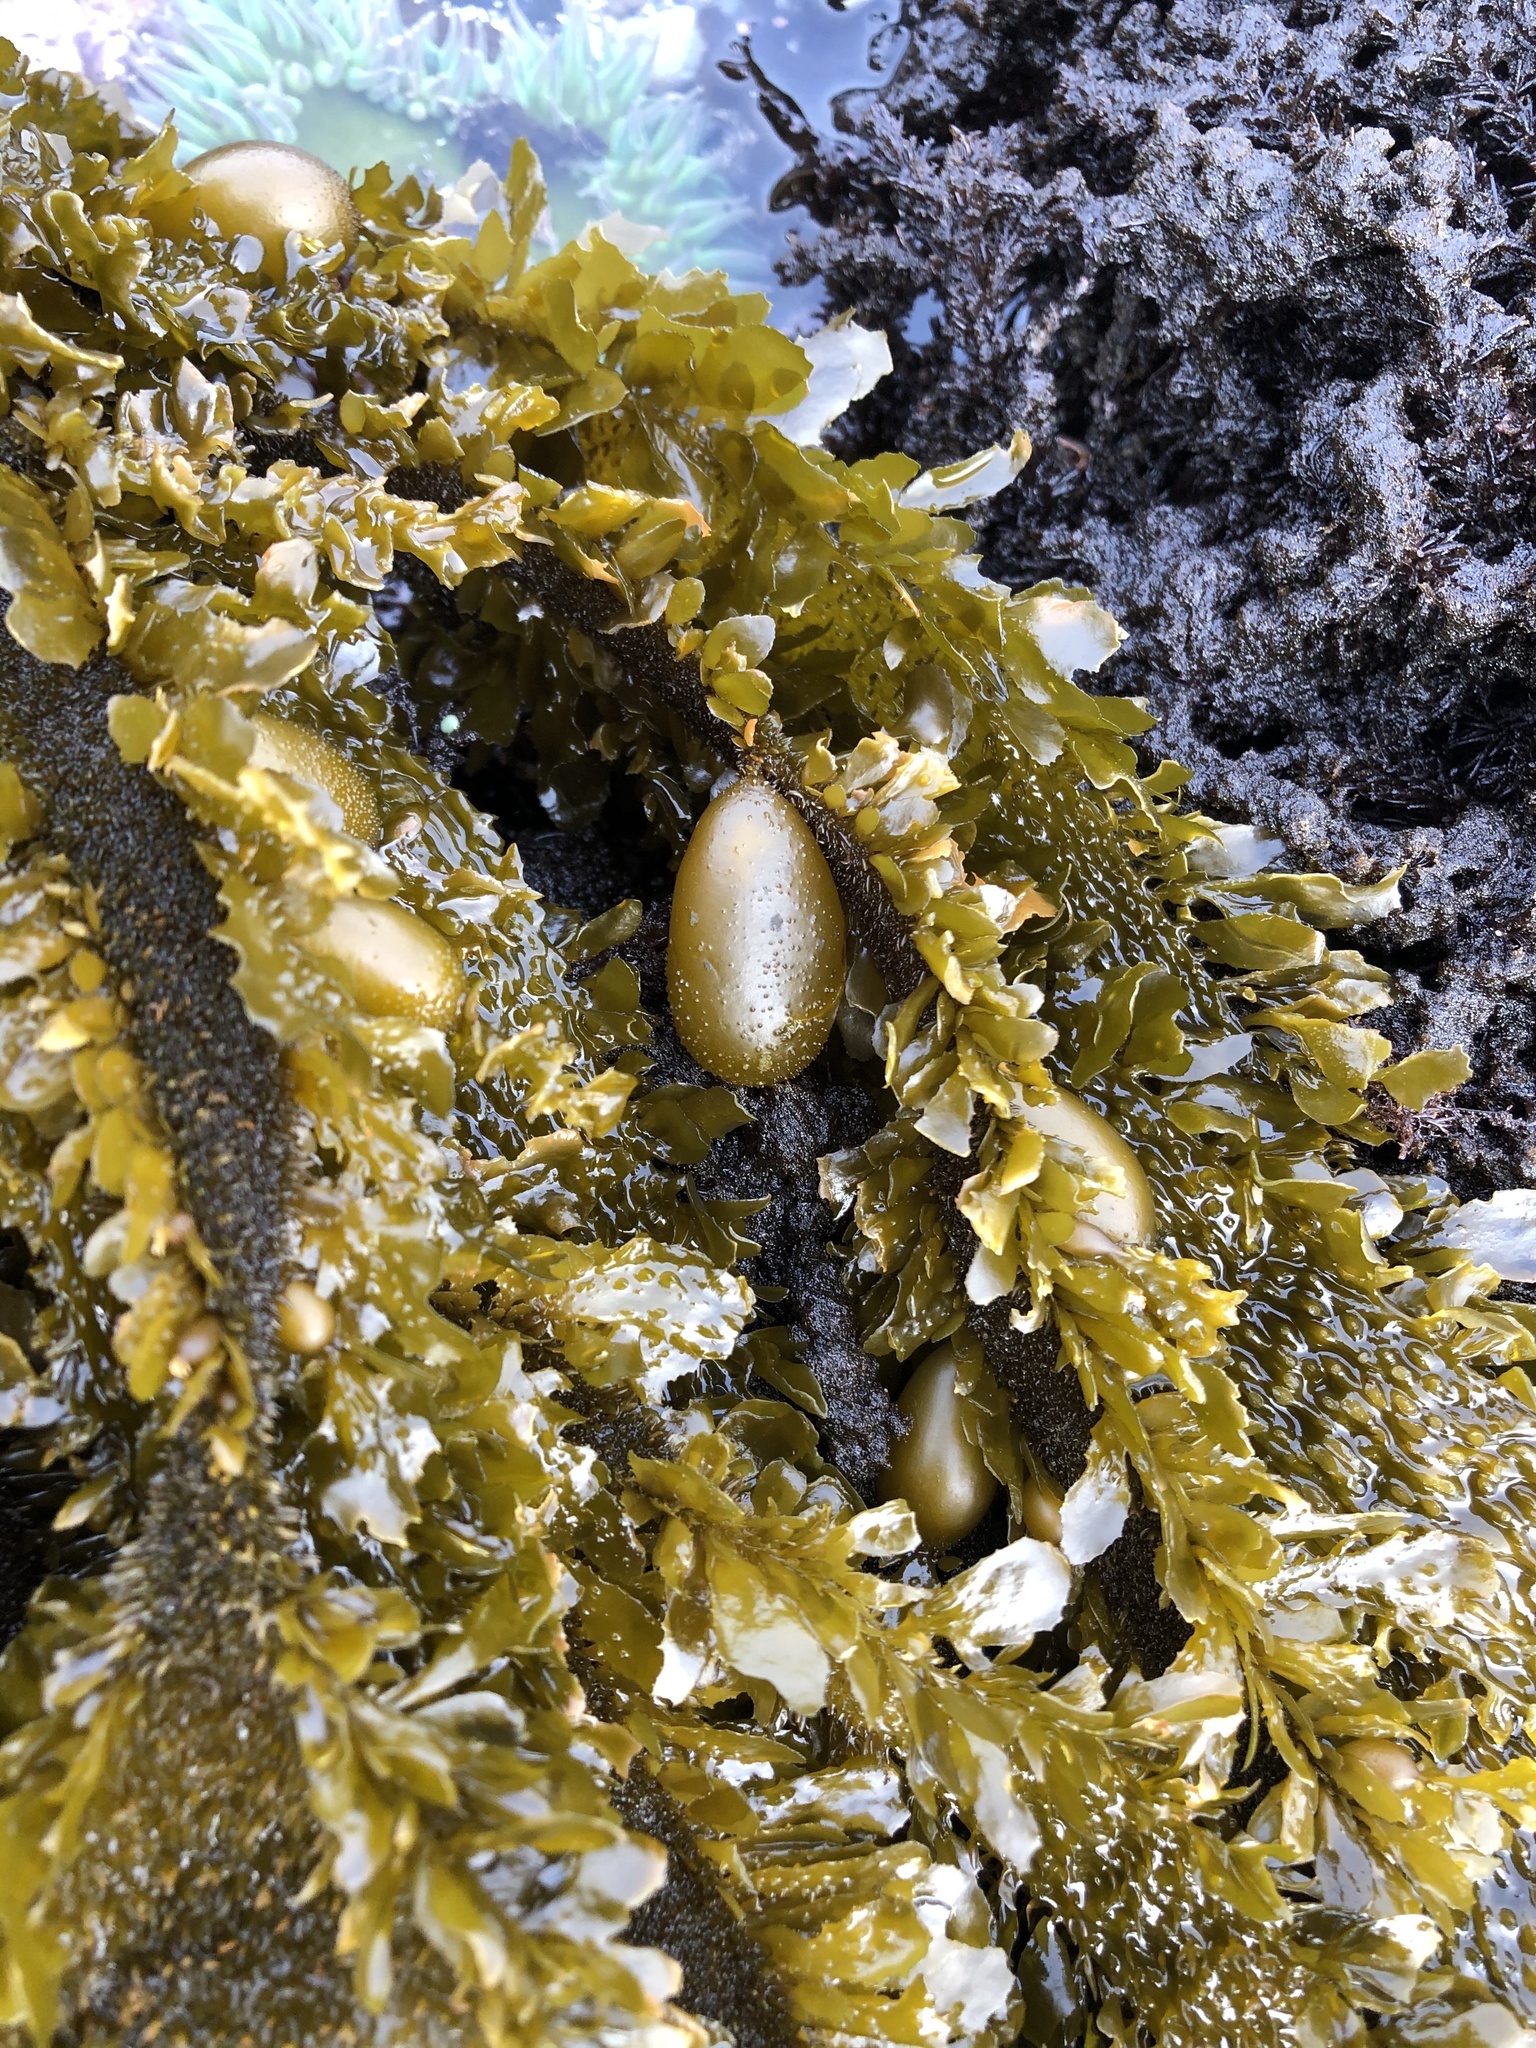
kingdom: Chromista
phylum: Ochrophyta
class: Phaeophyceae
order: Laminariales
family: Lessoniaceae
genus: Egregia
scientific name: Egregia menziesii
